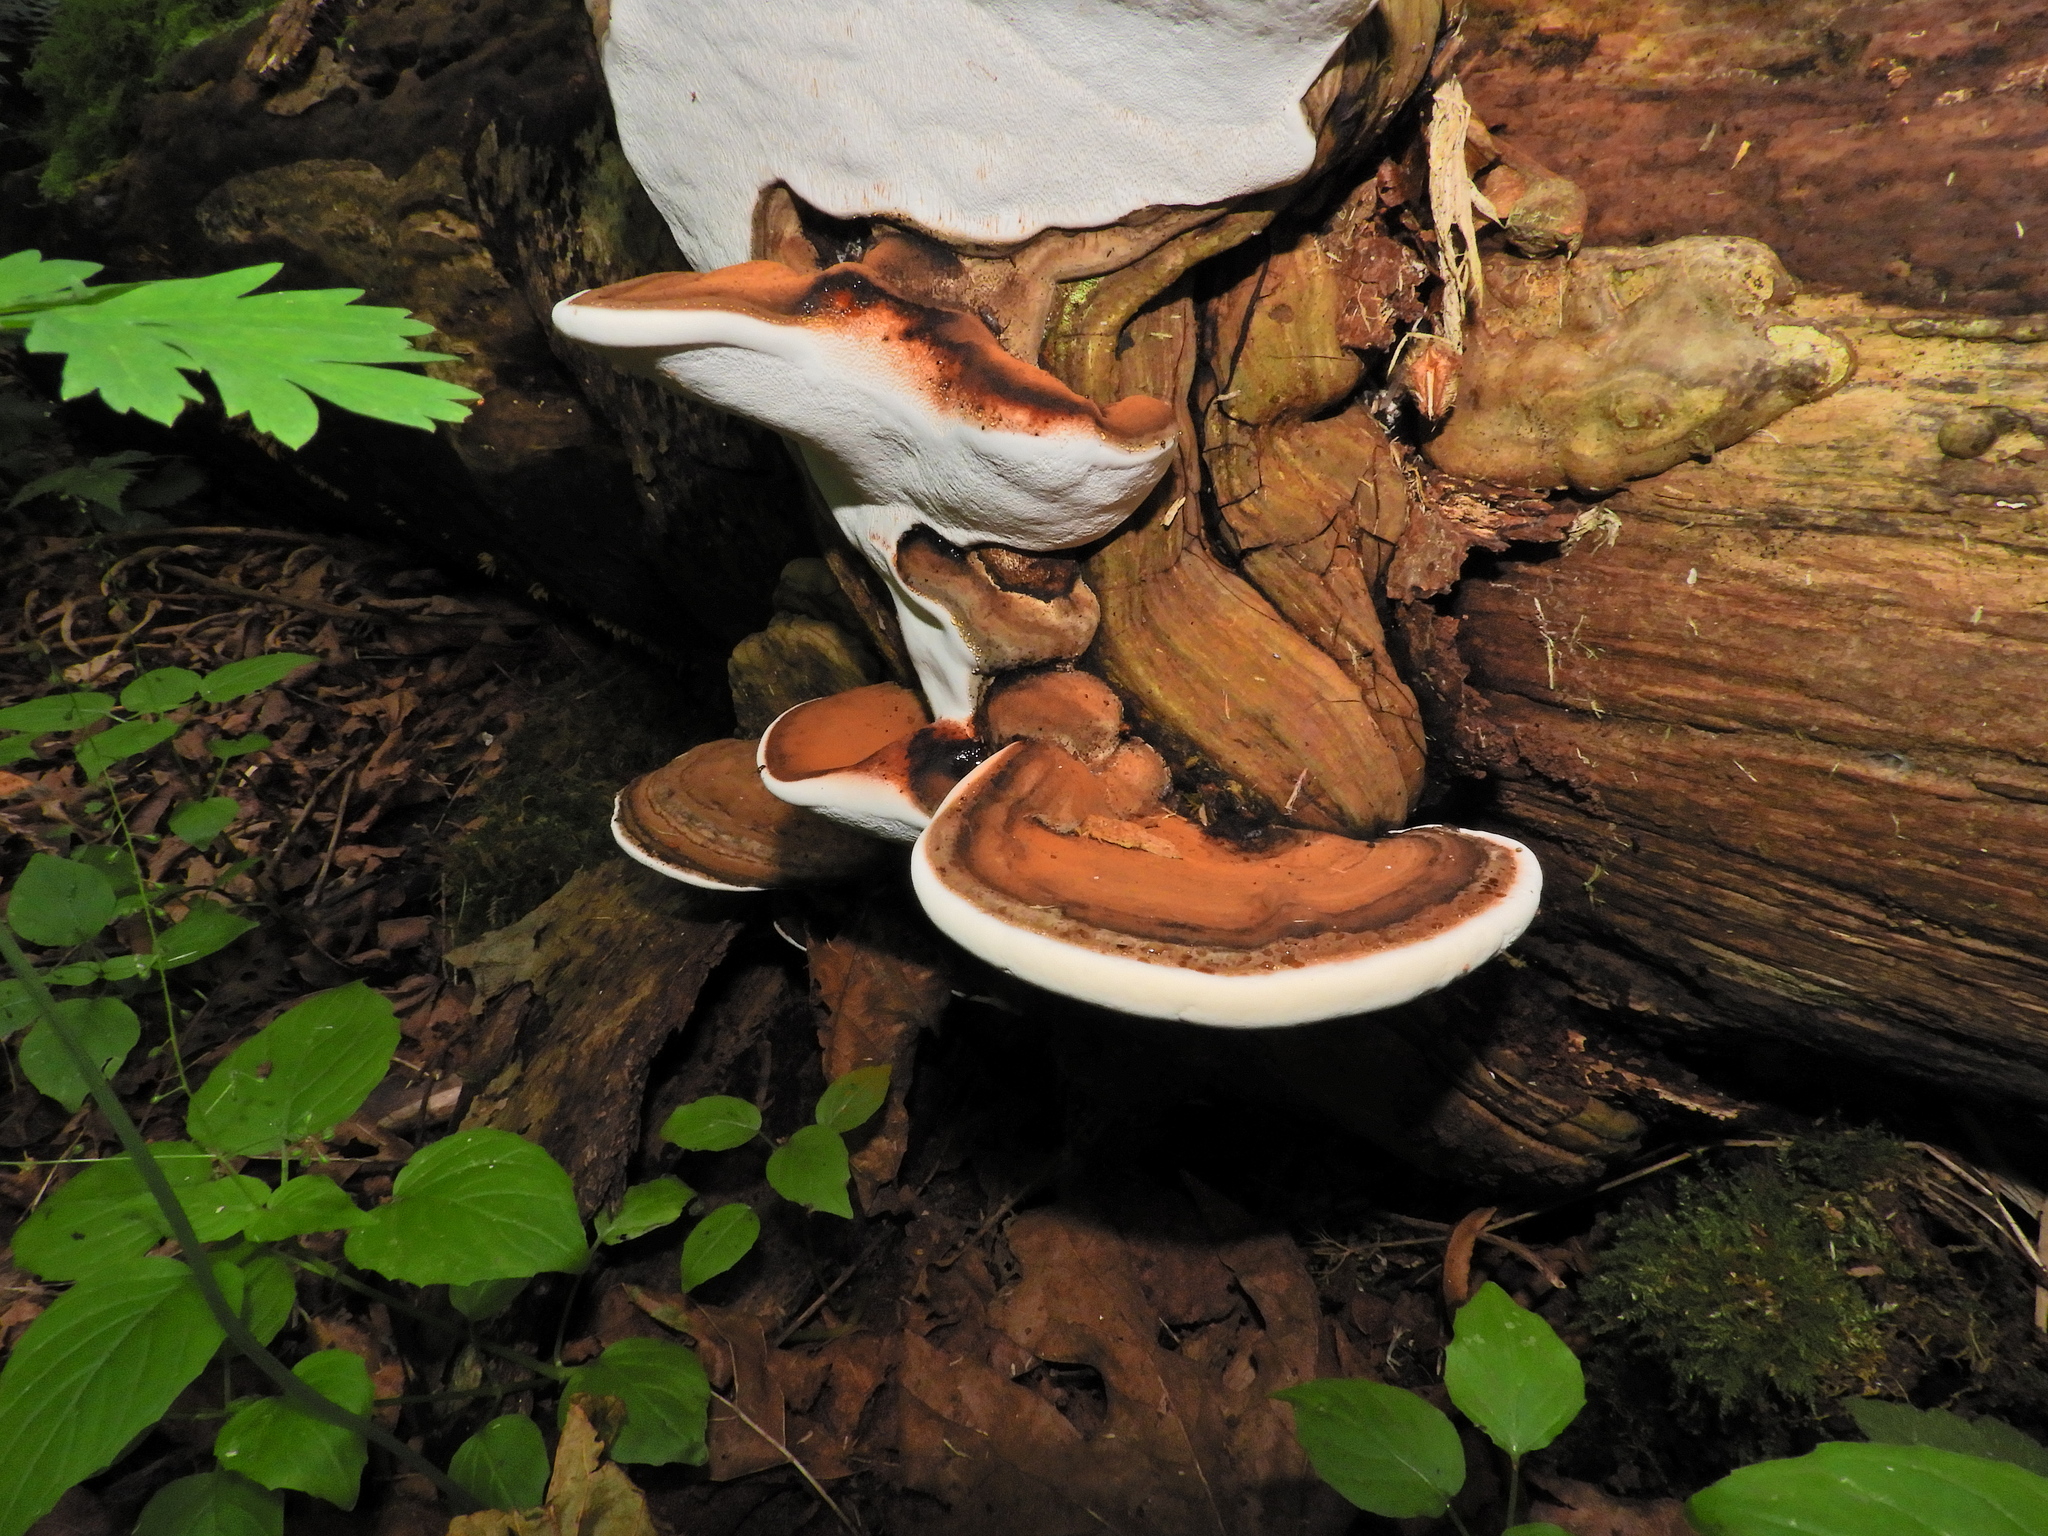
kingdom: Fungi
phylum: Basidiomycota
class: Agaricomycetes
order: Polyporales
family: Polyporaceae
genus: Ganoderma
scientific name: Ganoderma applanatum
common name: Artist's bracket
